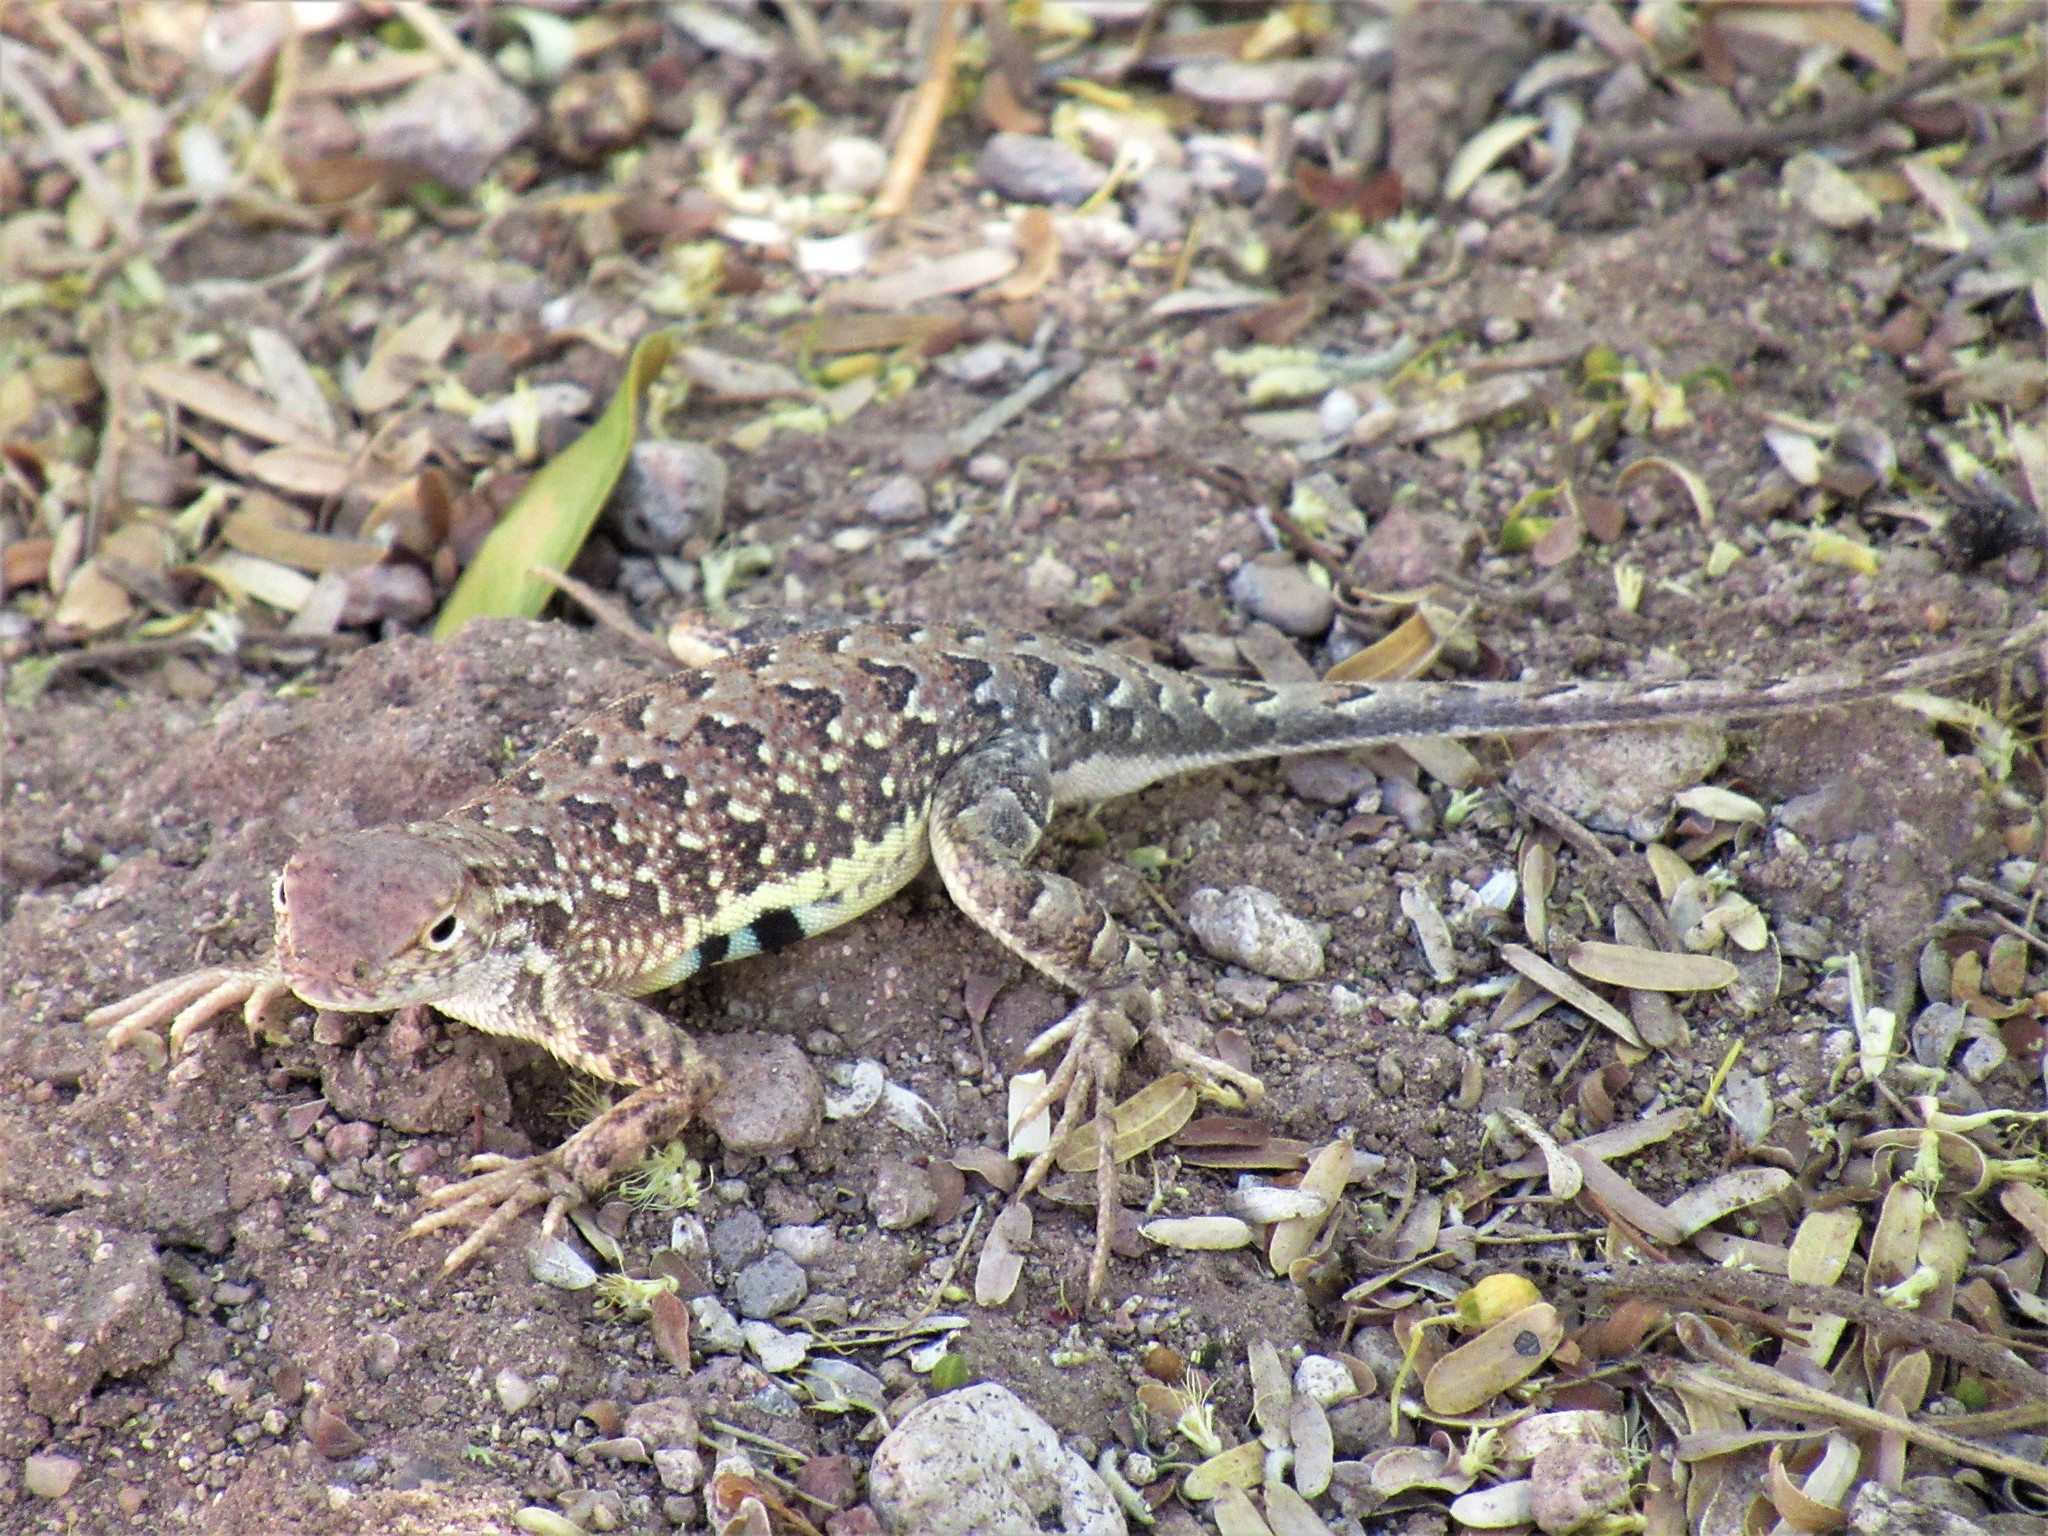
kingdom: Animalia
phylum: Chordata
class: Squamata
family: Phrynosomatidae
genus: Holbrookia
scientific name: Holbrookia elegans
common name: Elegant earless lizard
